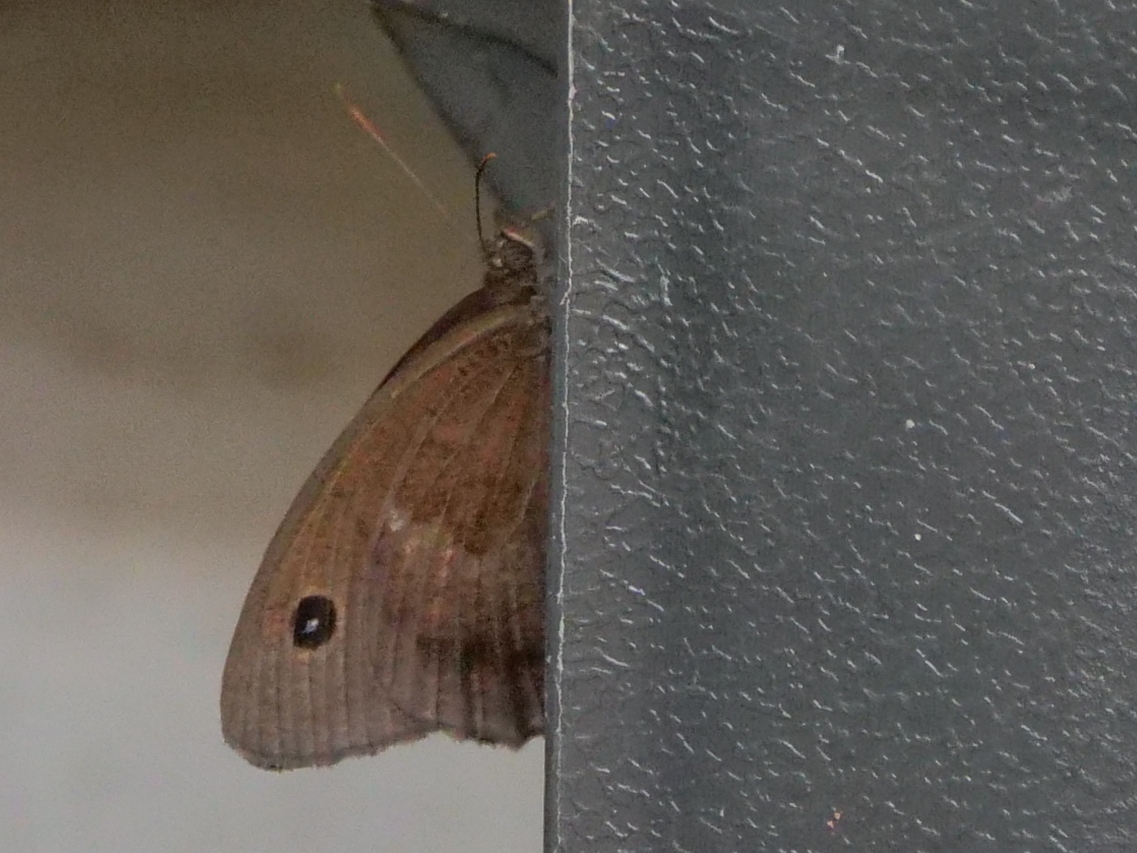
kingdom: Animalia
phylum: Arthropoda
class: Insecta
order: Lepidoptera
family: Nymphalidae
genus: Minois
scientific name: Minois dryas
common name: Dryad
